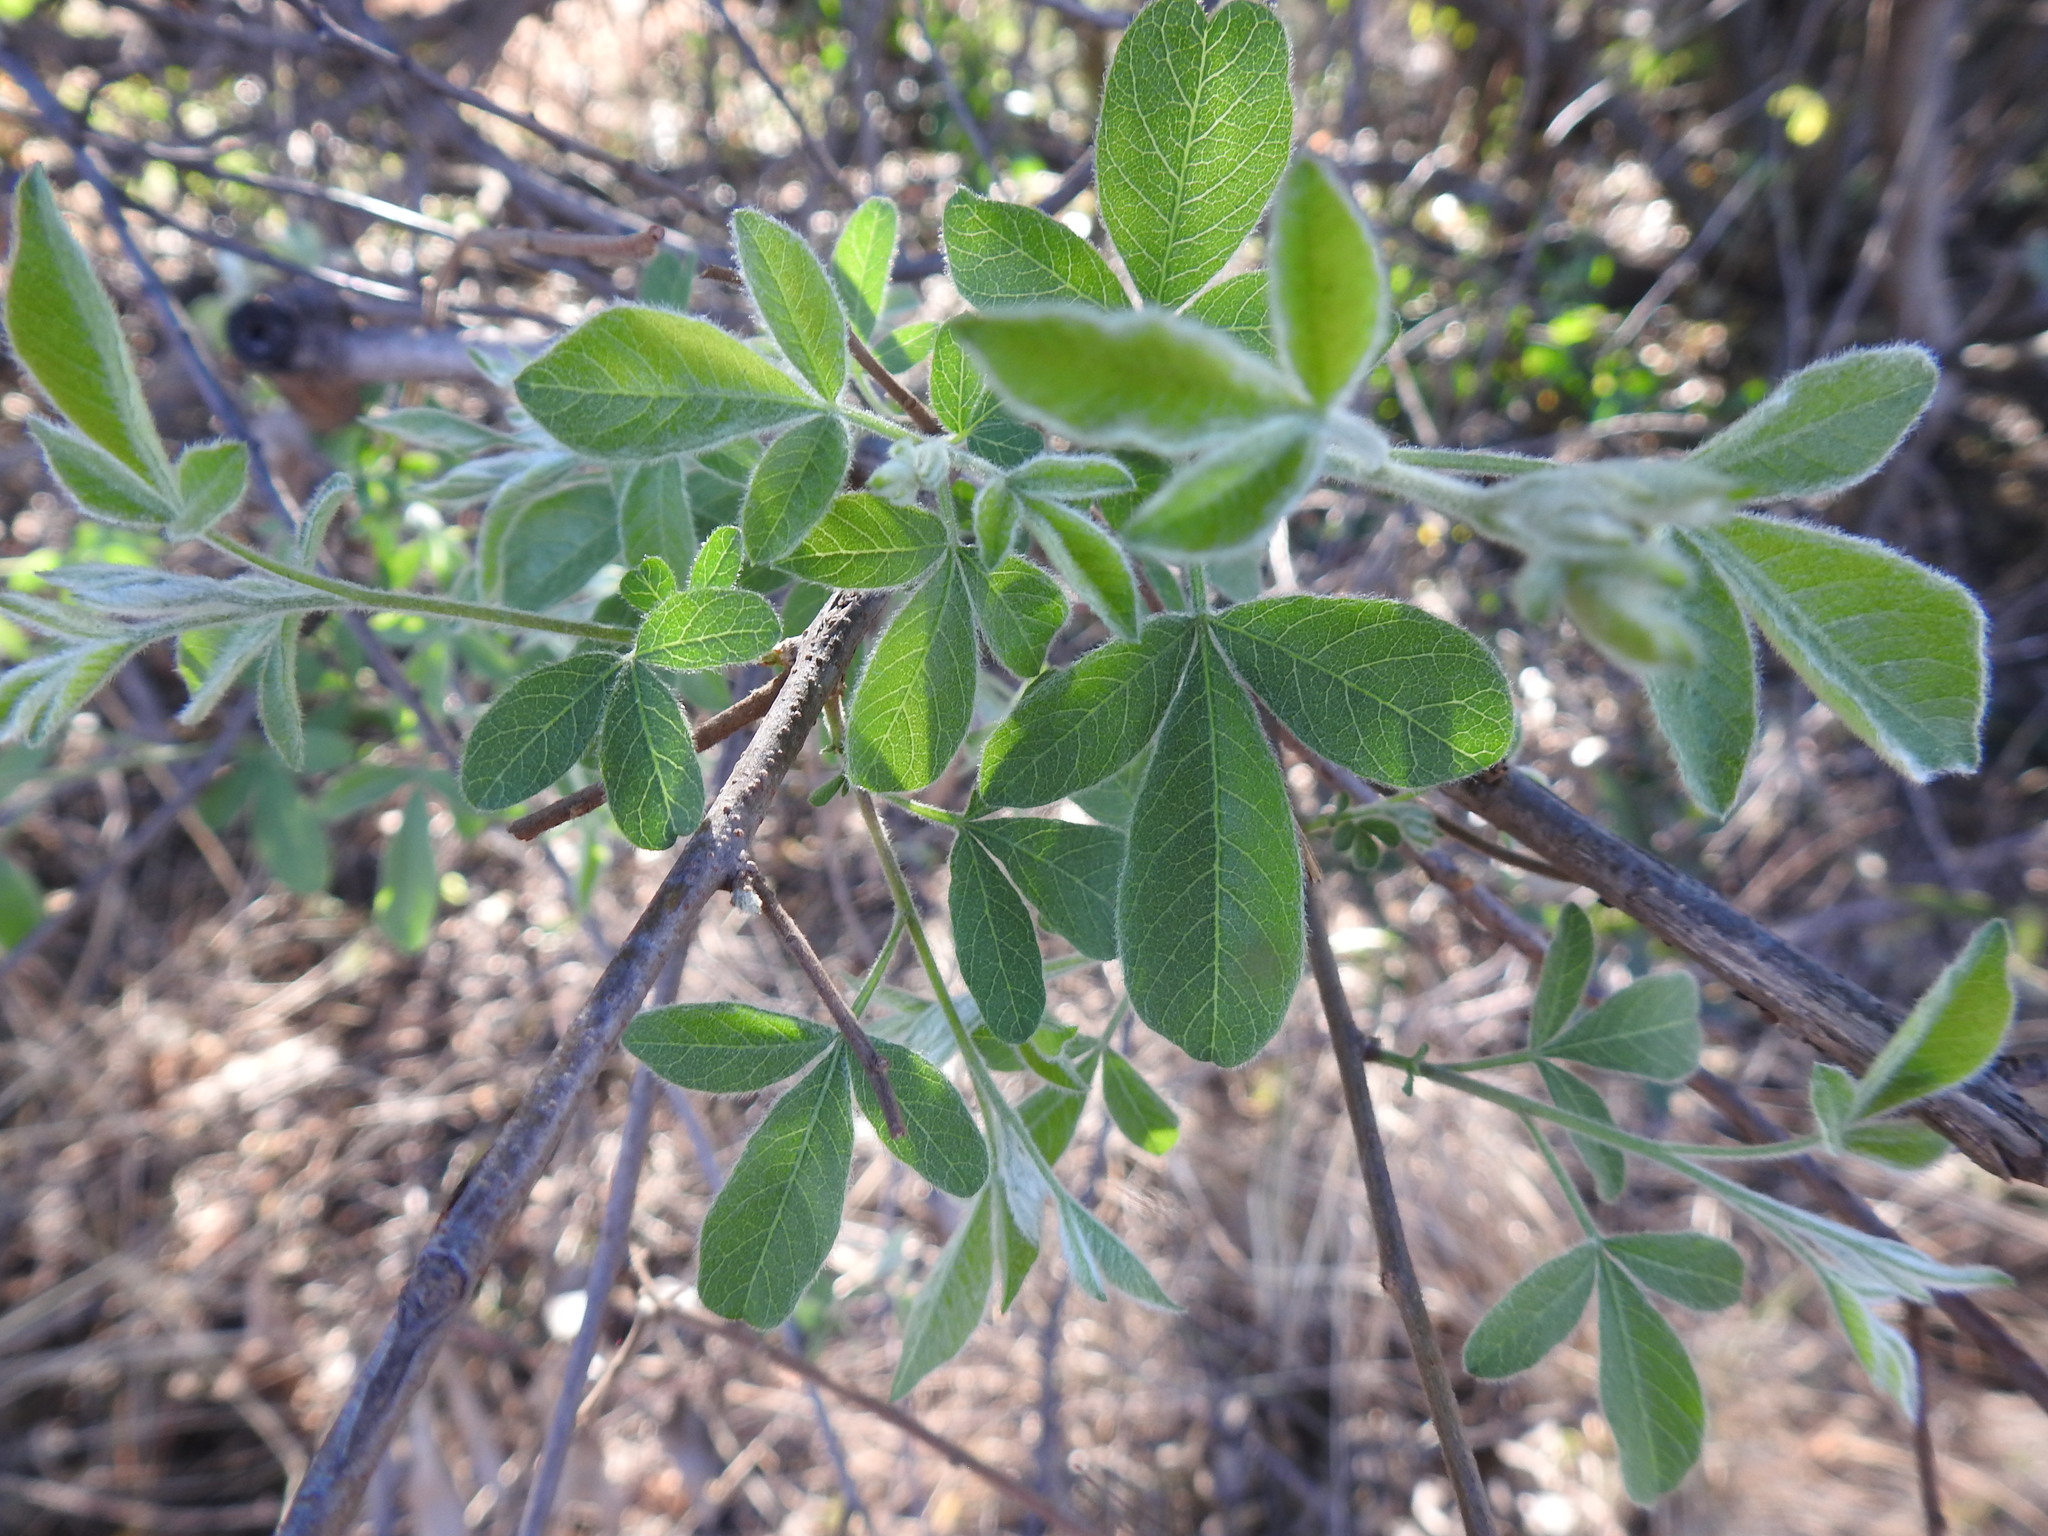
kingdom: Plantae
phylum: Tracheophyta
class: Magnoliopsida
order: Sapindales
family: Anacardiaceae
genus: Searsia
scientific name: Searsia pyroides
